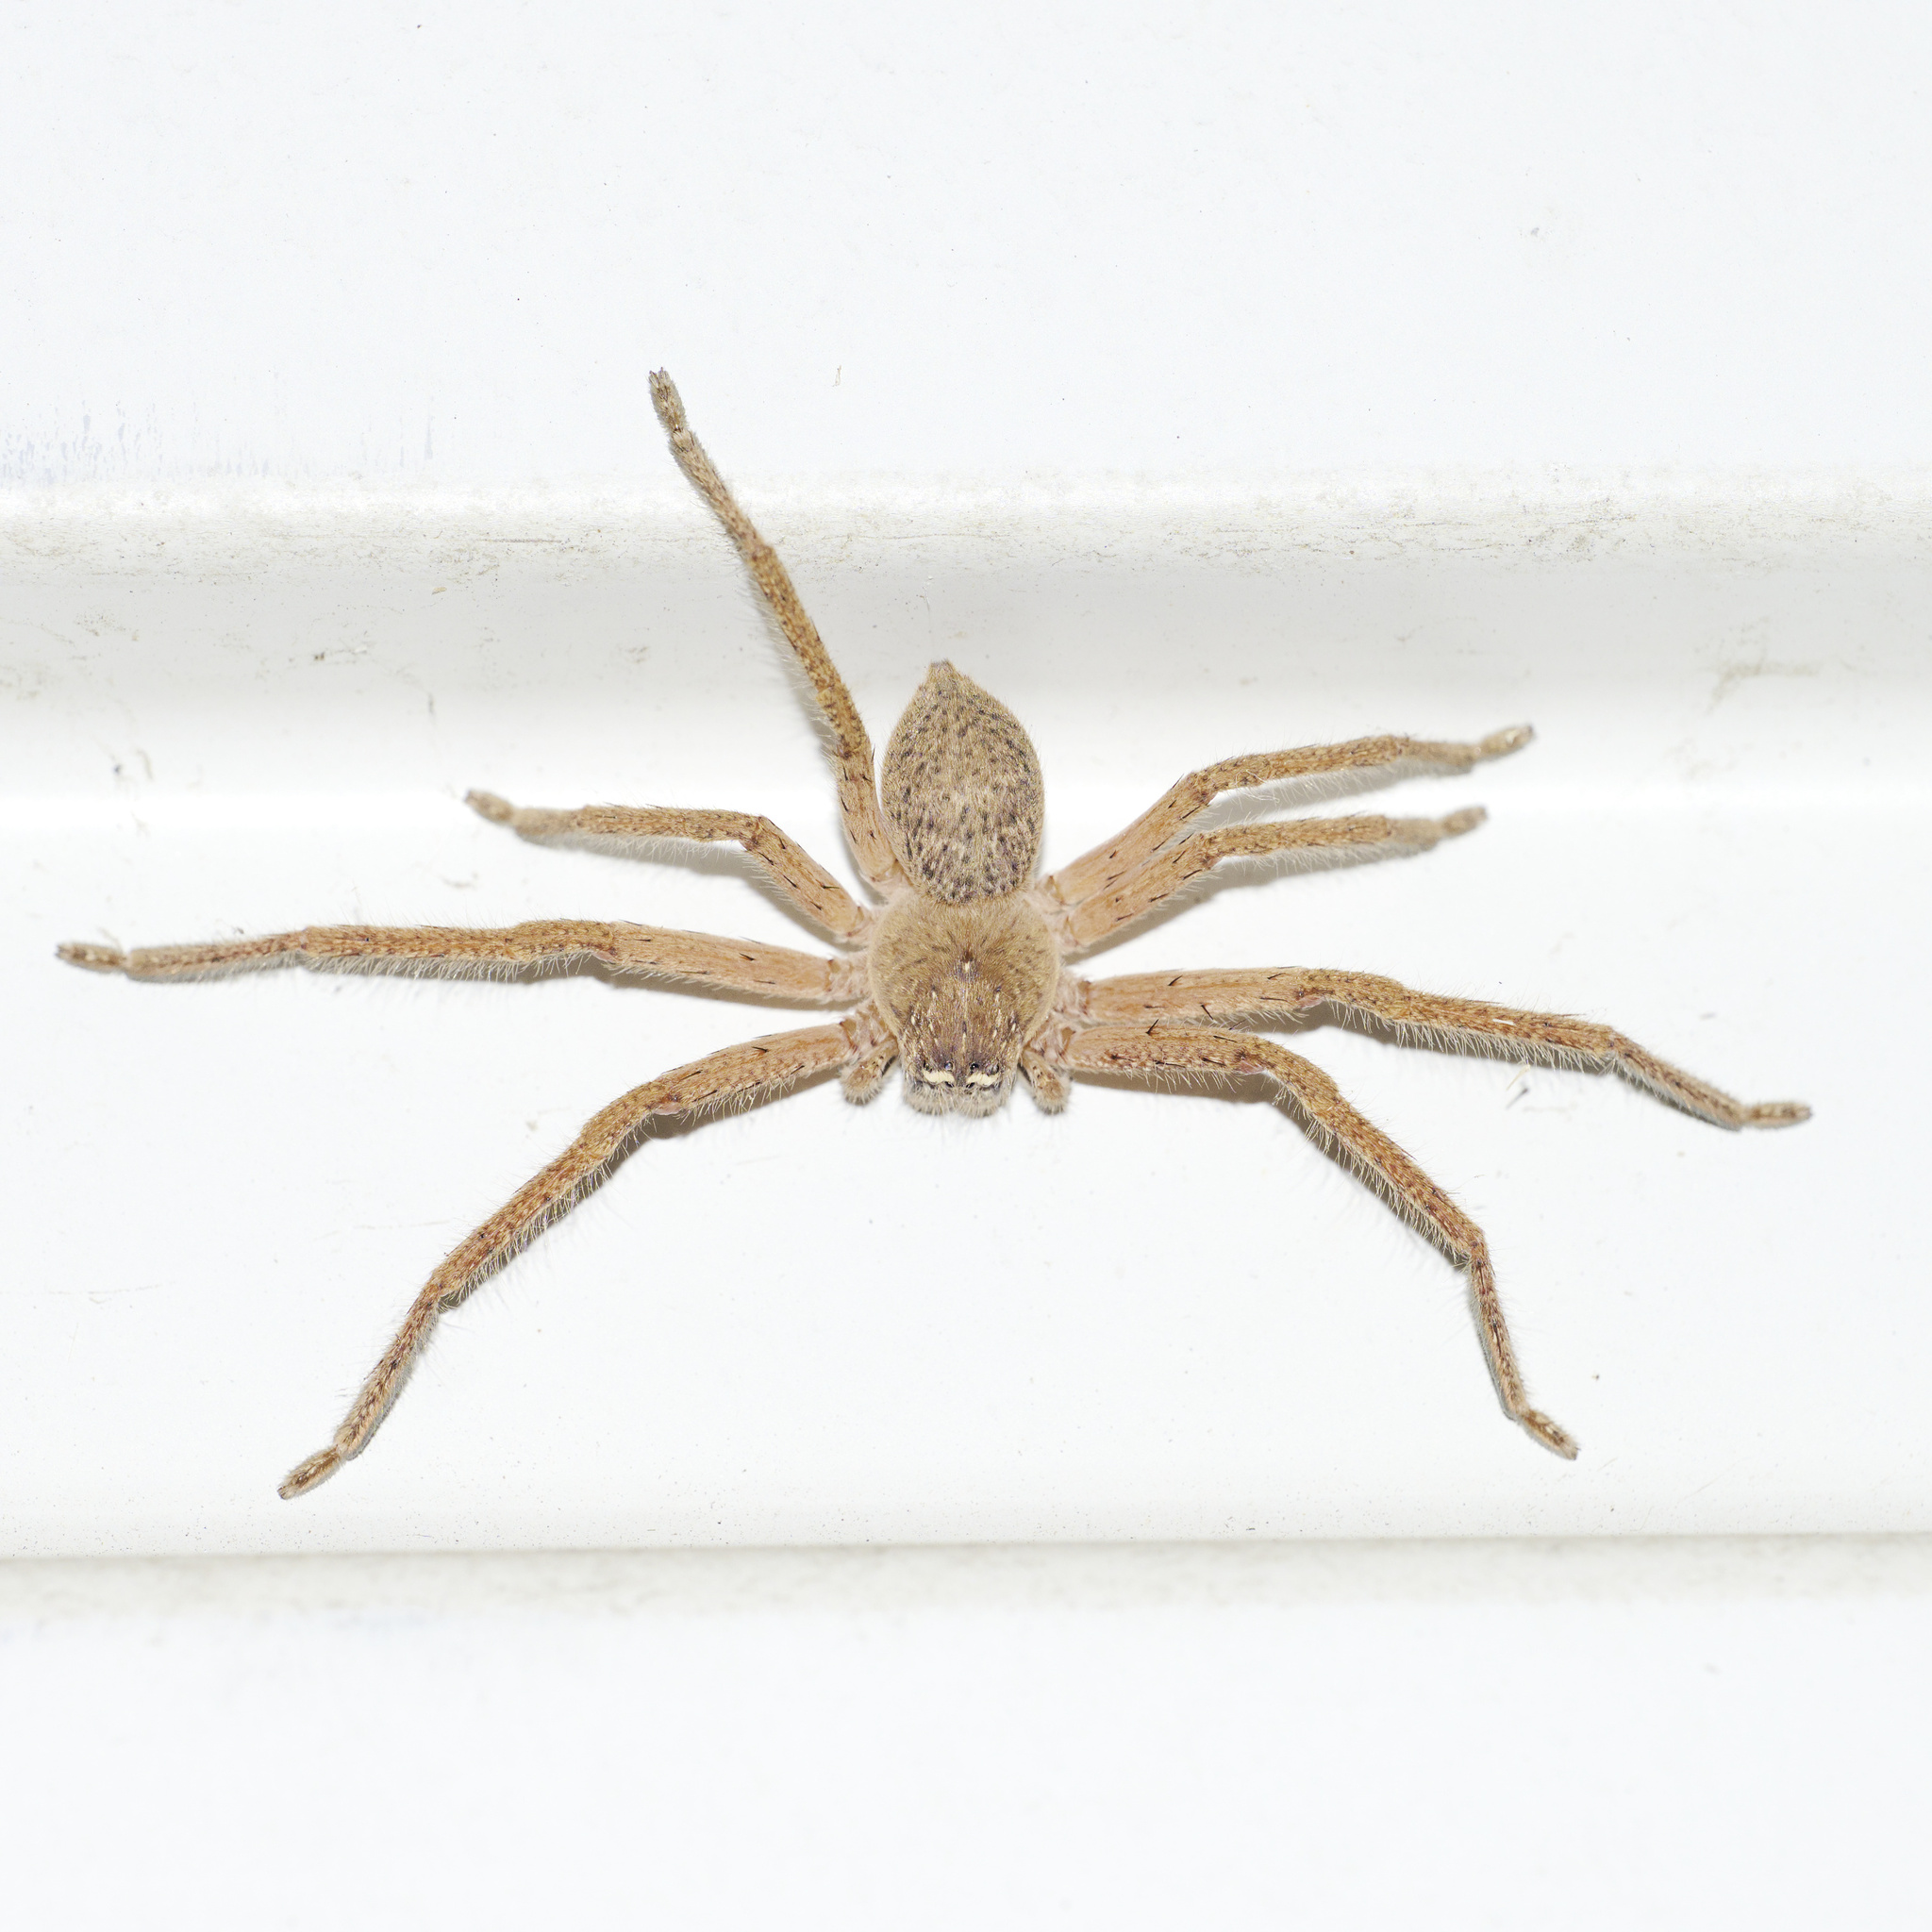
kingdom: Animalia
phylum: Arthropoda
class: Arachnida
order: Araneae
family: Sparassidae
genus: Neosparassus
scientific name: Neosparassus diana
